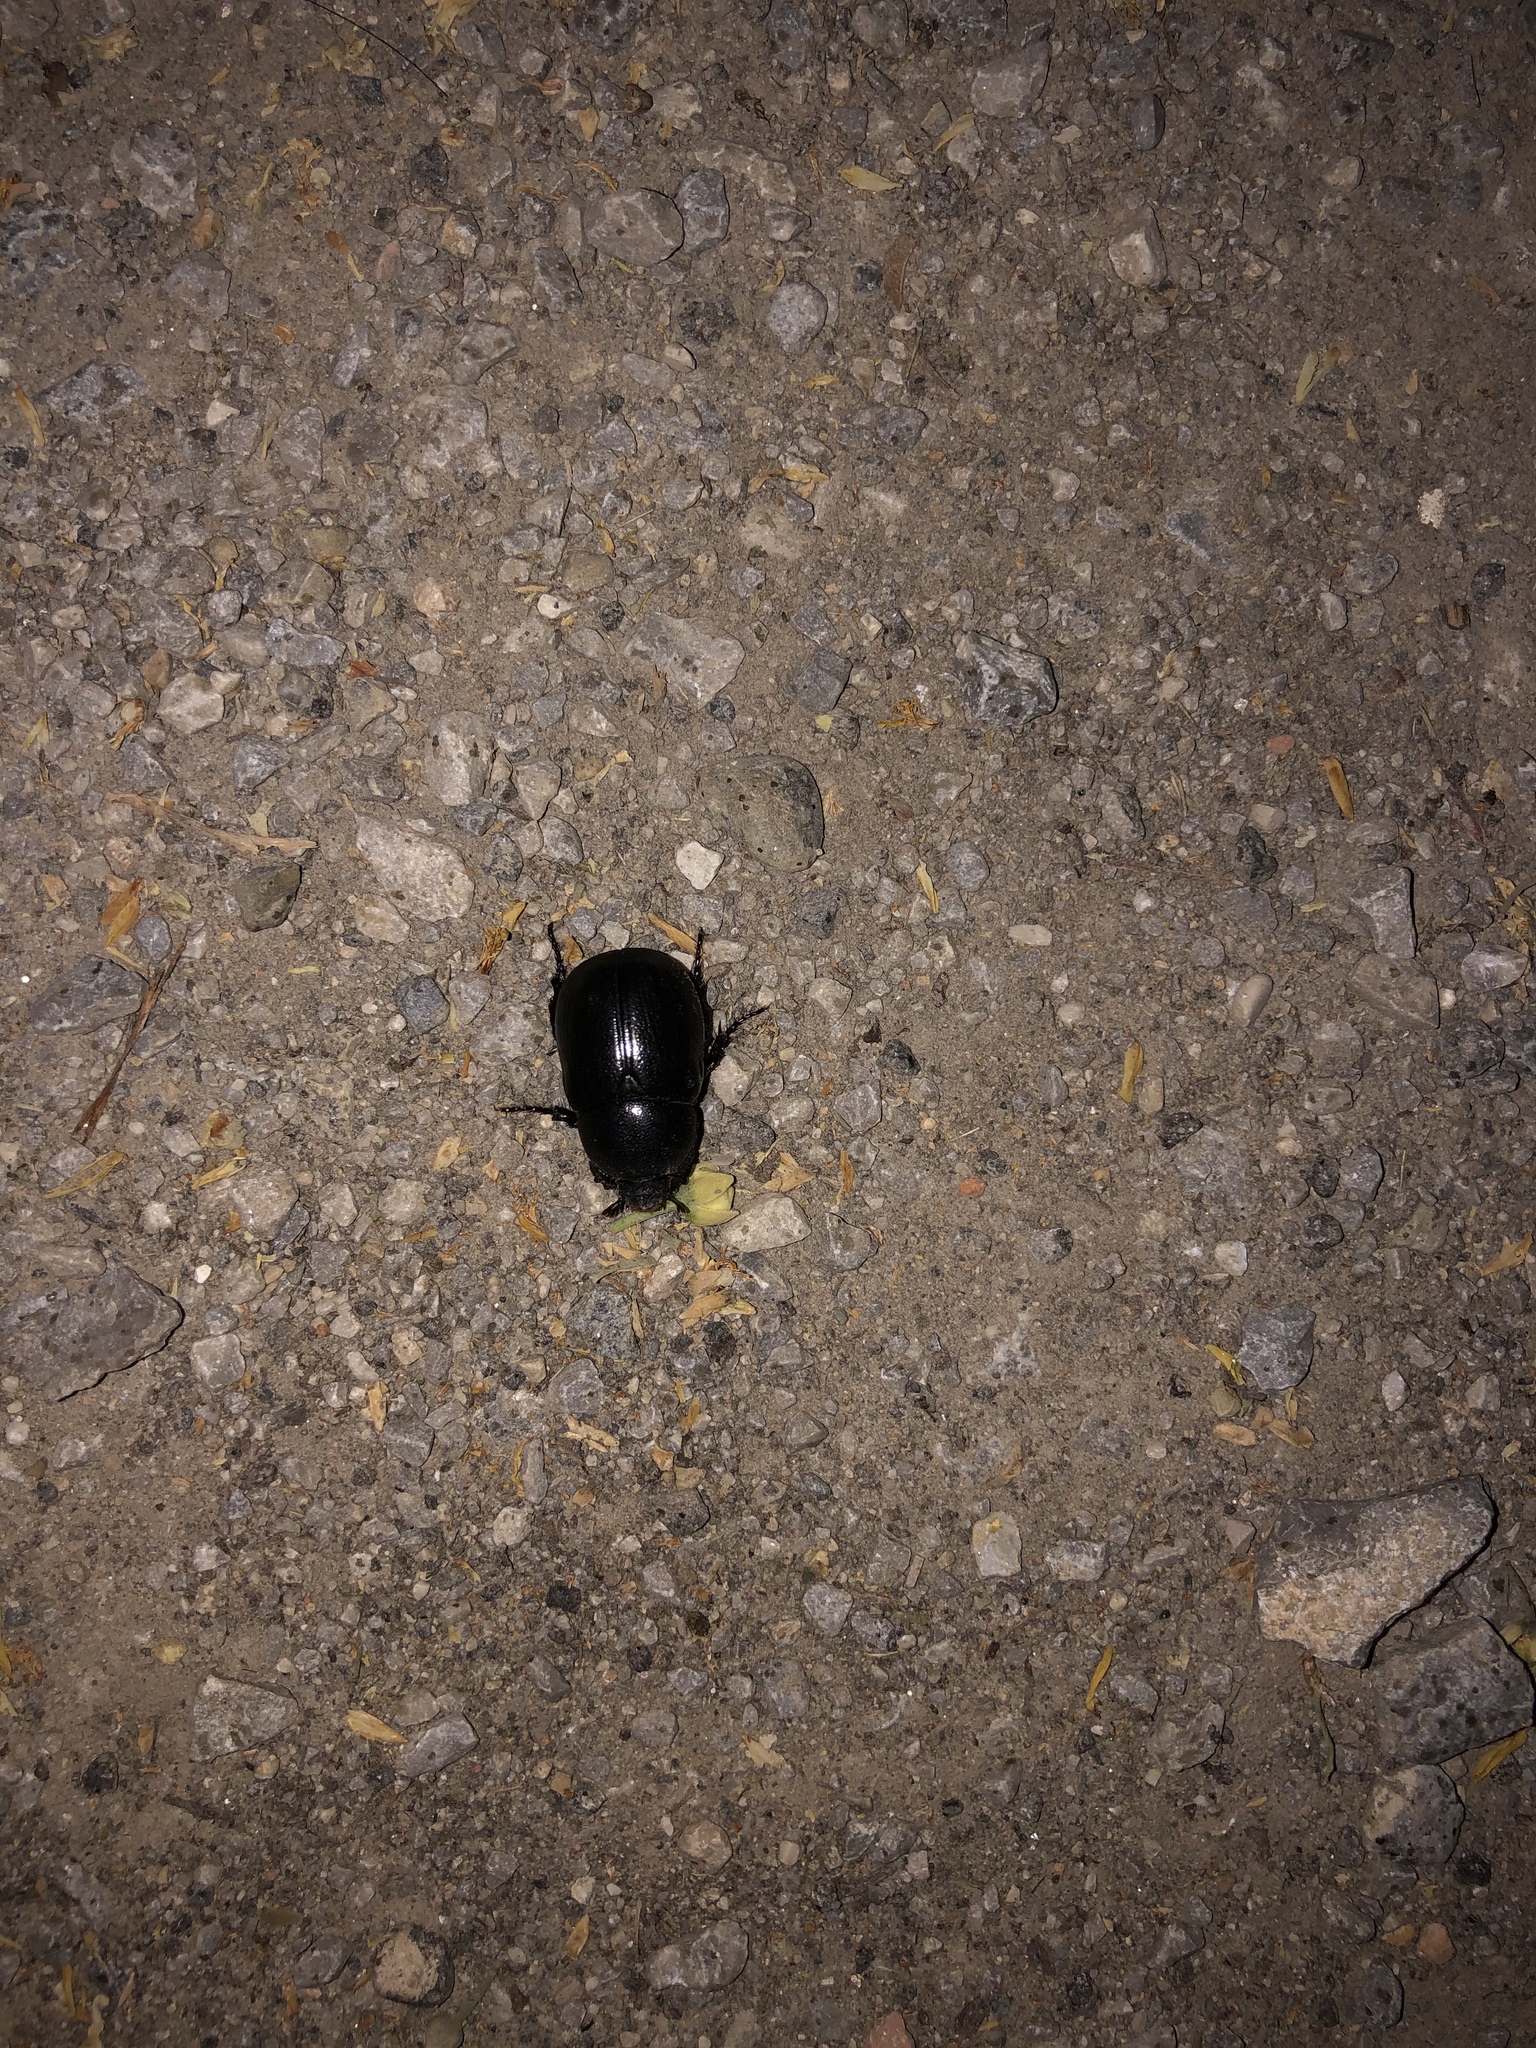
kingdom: Animalia
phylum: Arthropoda
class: Insecta
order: Coleoptera
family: Scarabaeidae
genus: Pentodon
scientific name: Pentodon bidens
